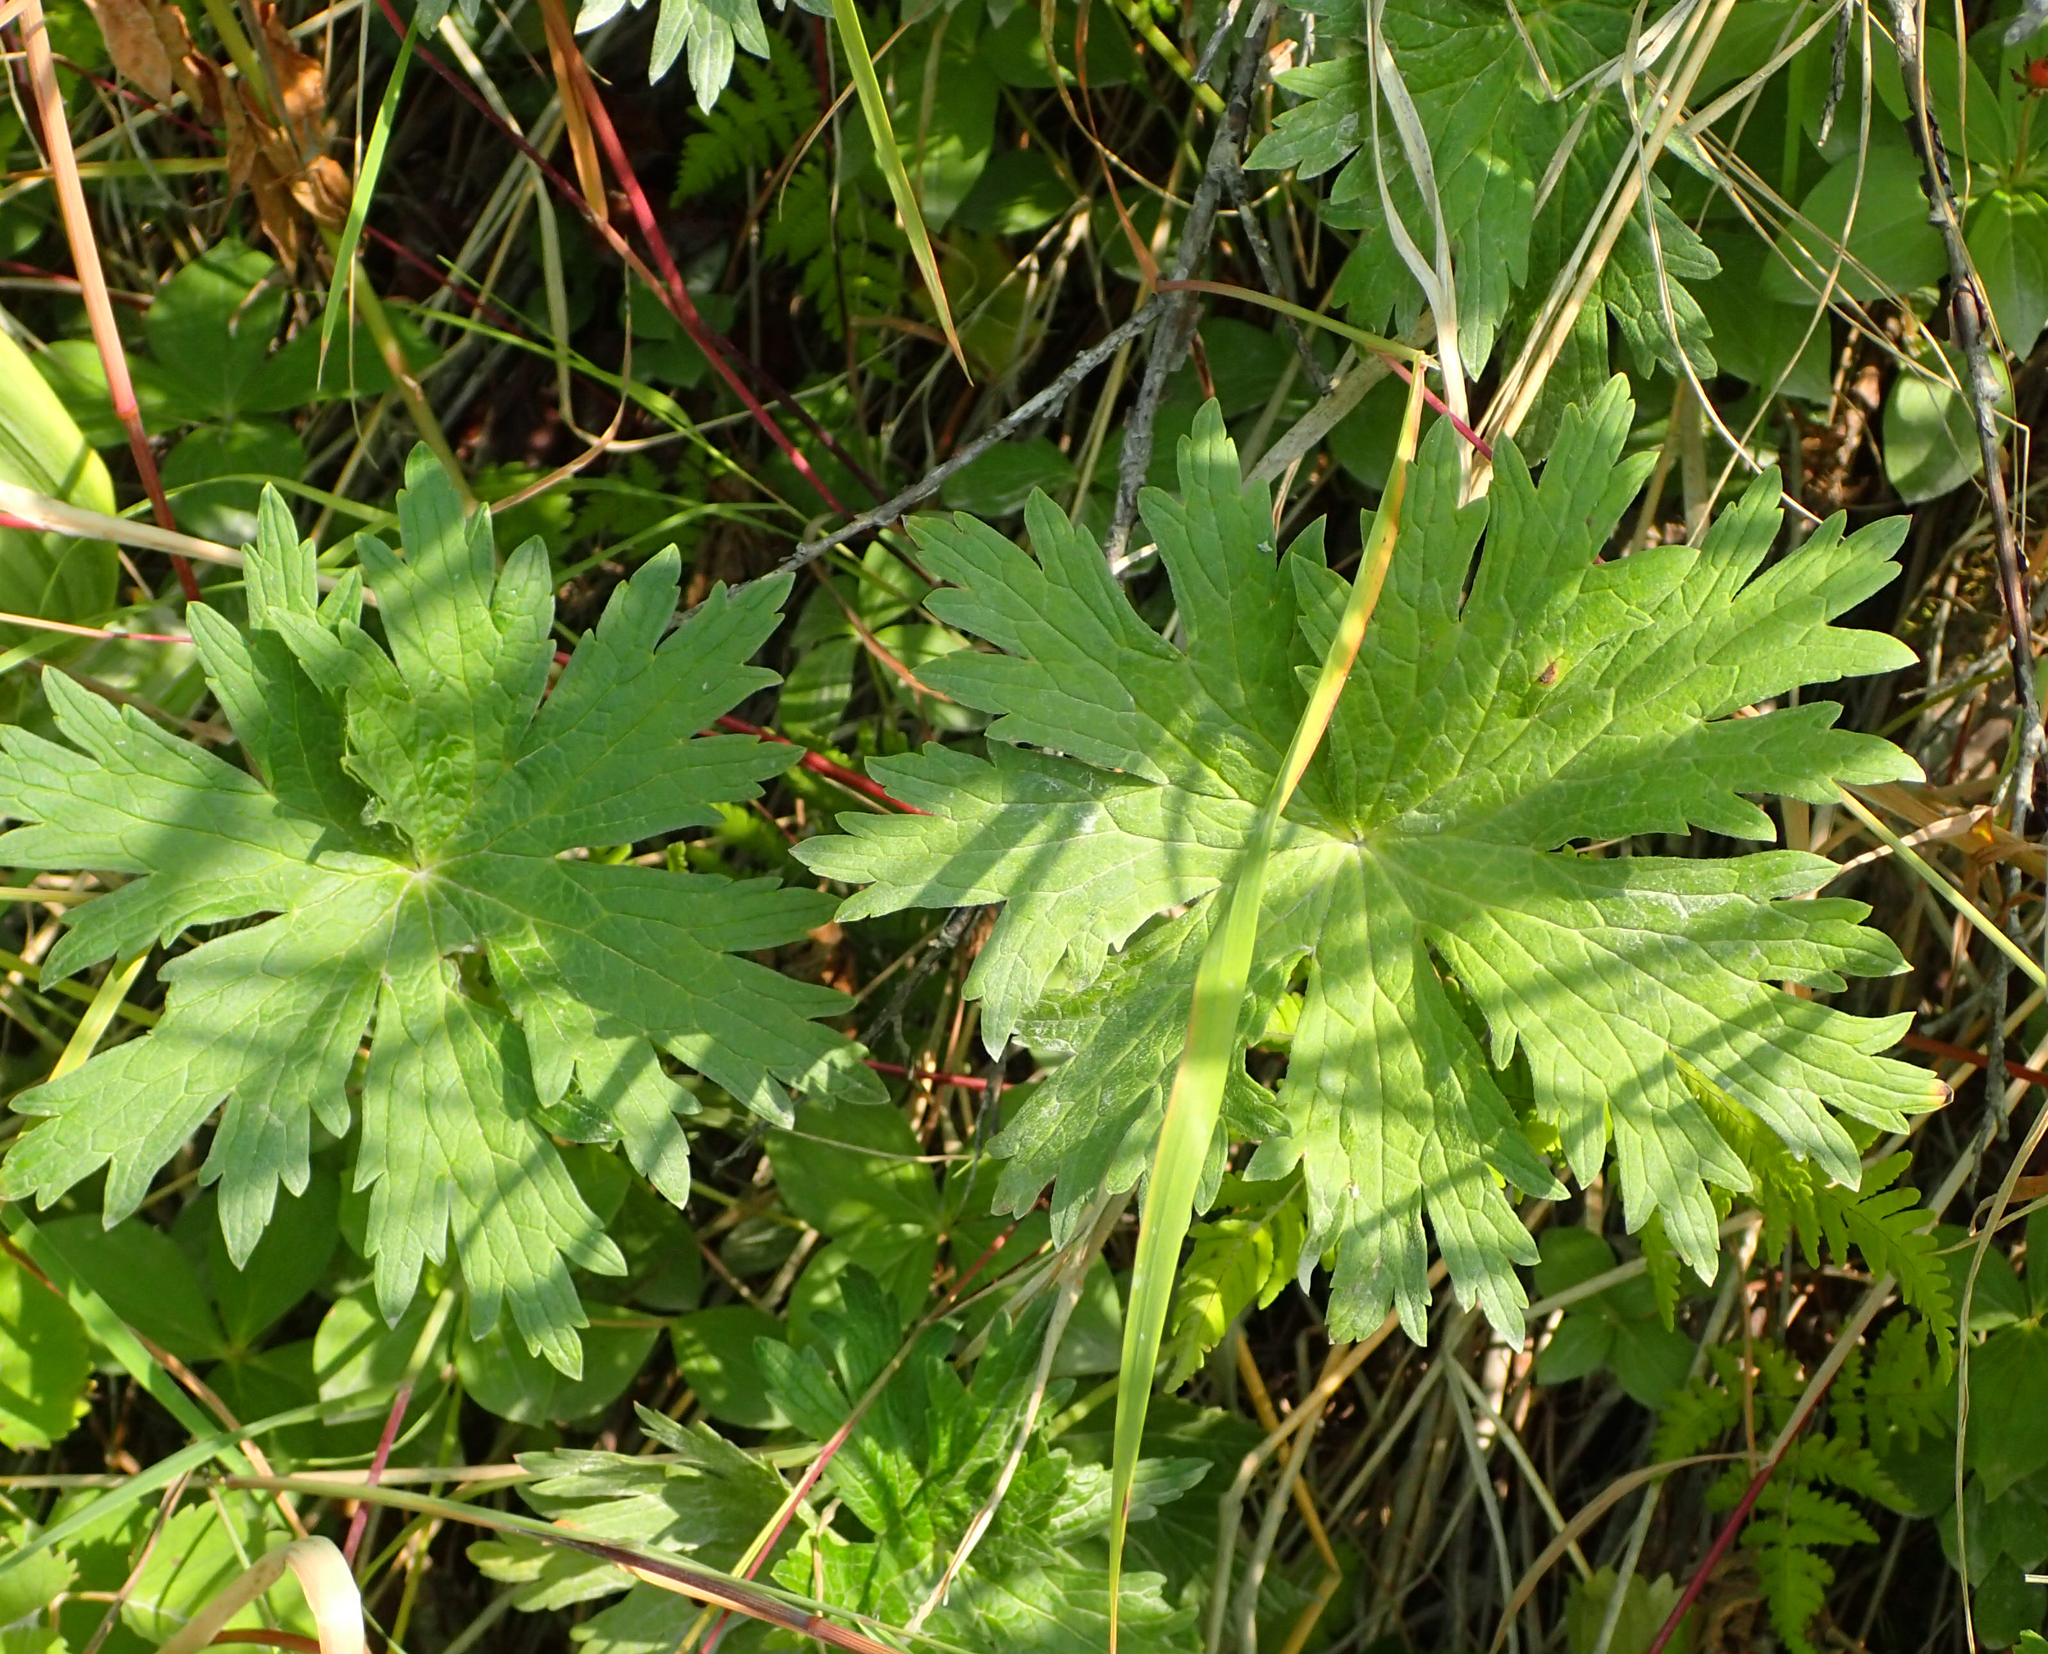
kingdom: Plantae
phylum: Tracheophyta
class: Magnoliopsida
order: Geraniales
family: Geraniaceae
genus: Geranium
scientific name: Geranium erianthum
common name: Northern crane's-bill
